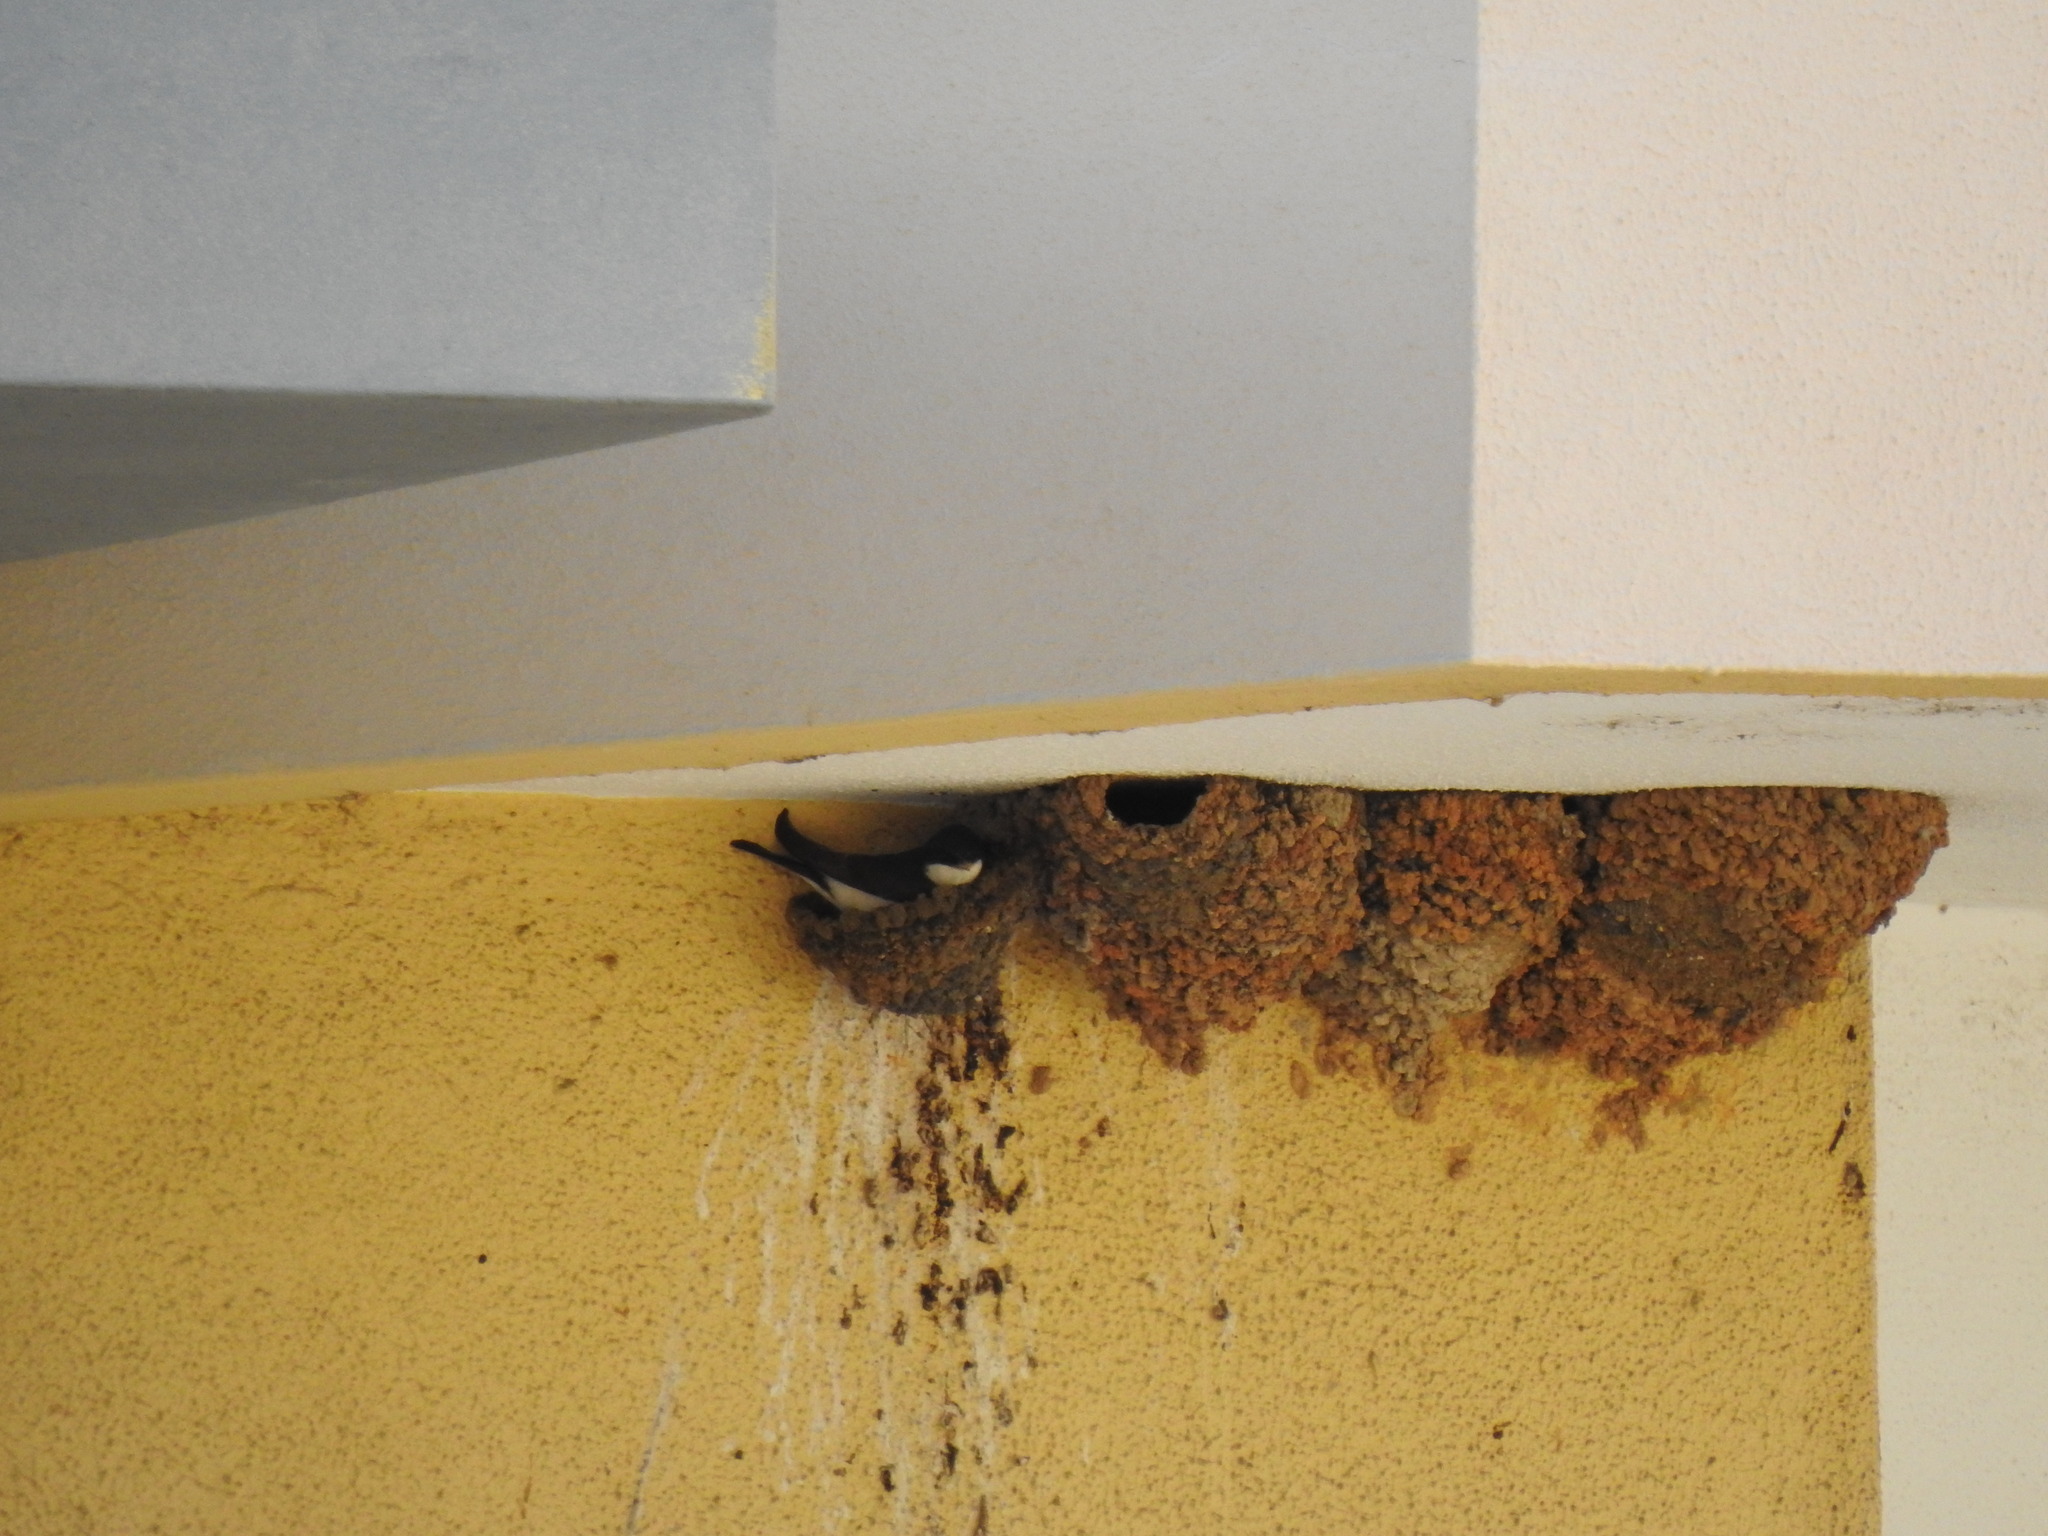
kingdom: Animalia
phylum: Chordata
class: Aves
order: Passeriformes
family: Hirundinidae
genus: Delichon
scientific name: Delichon urbicum
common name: Common house martin
